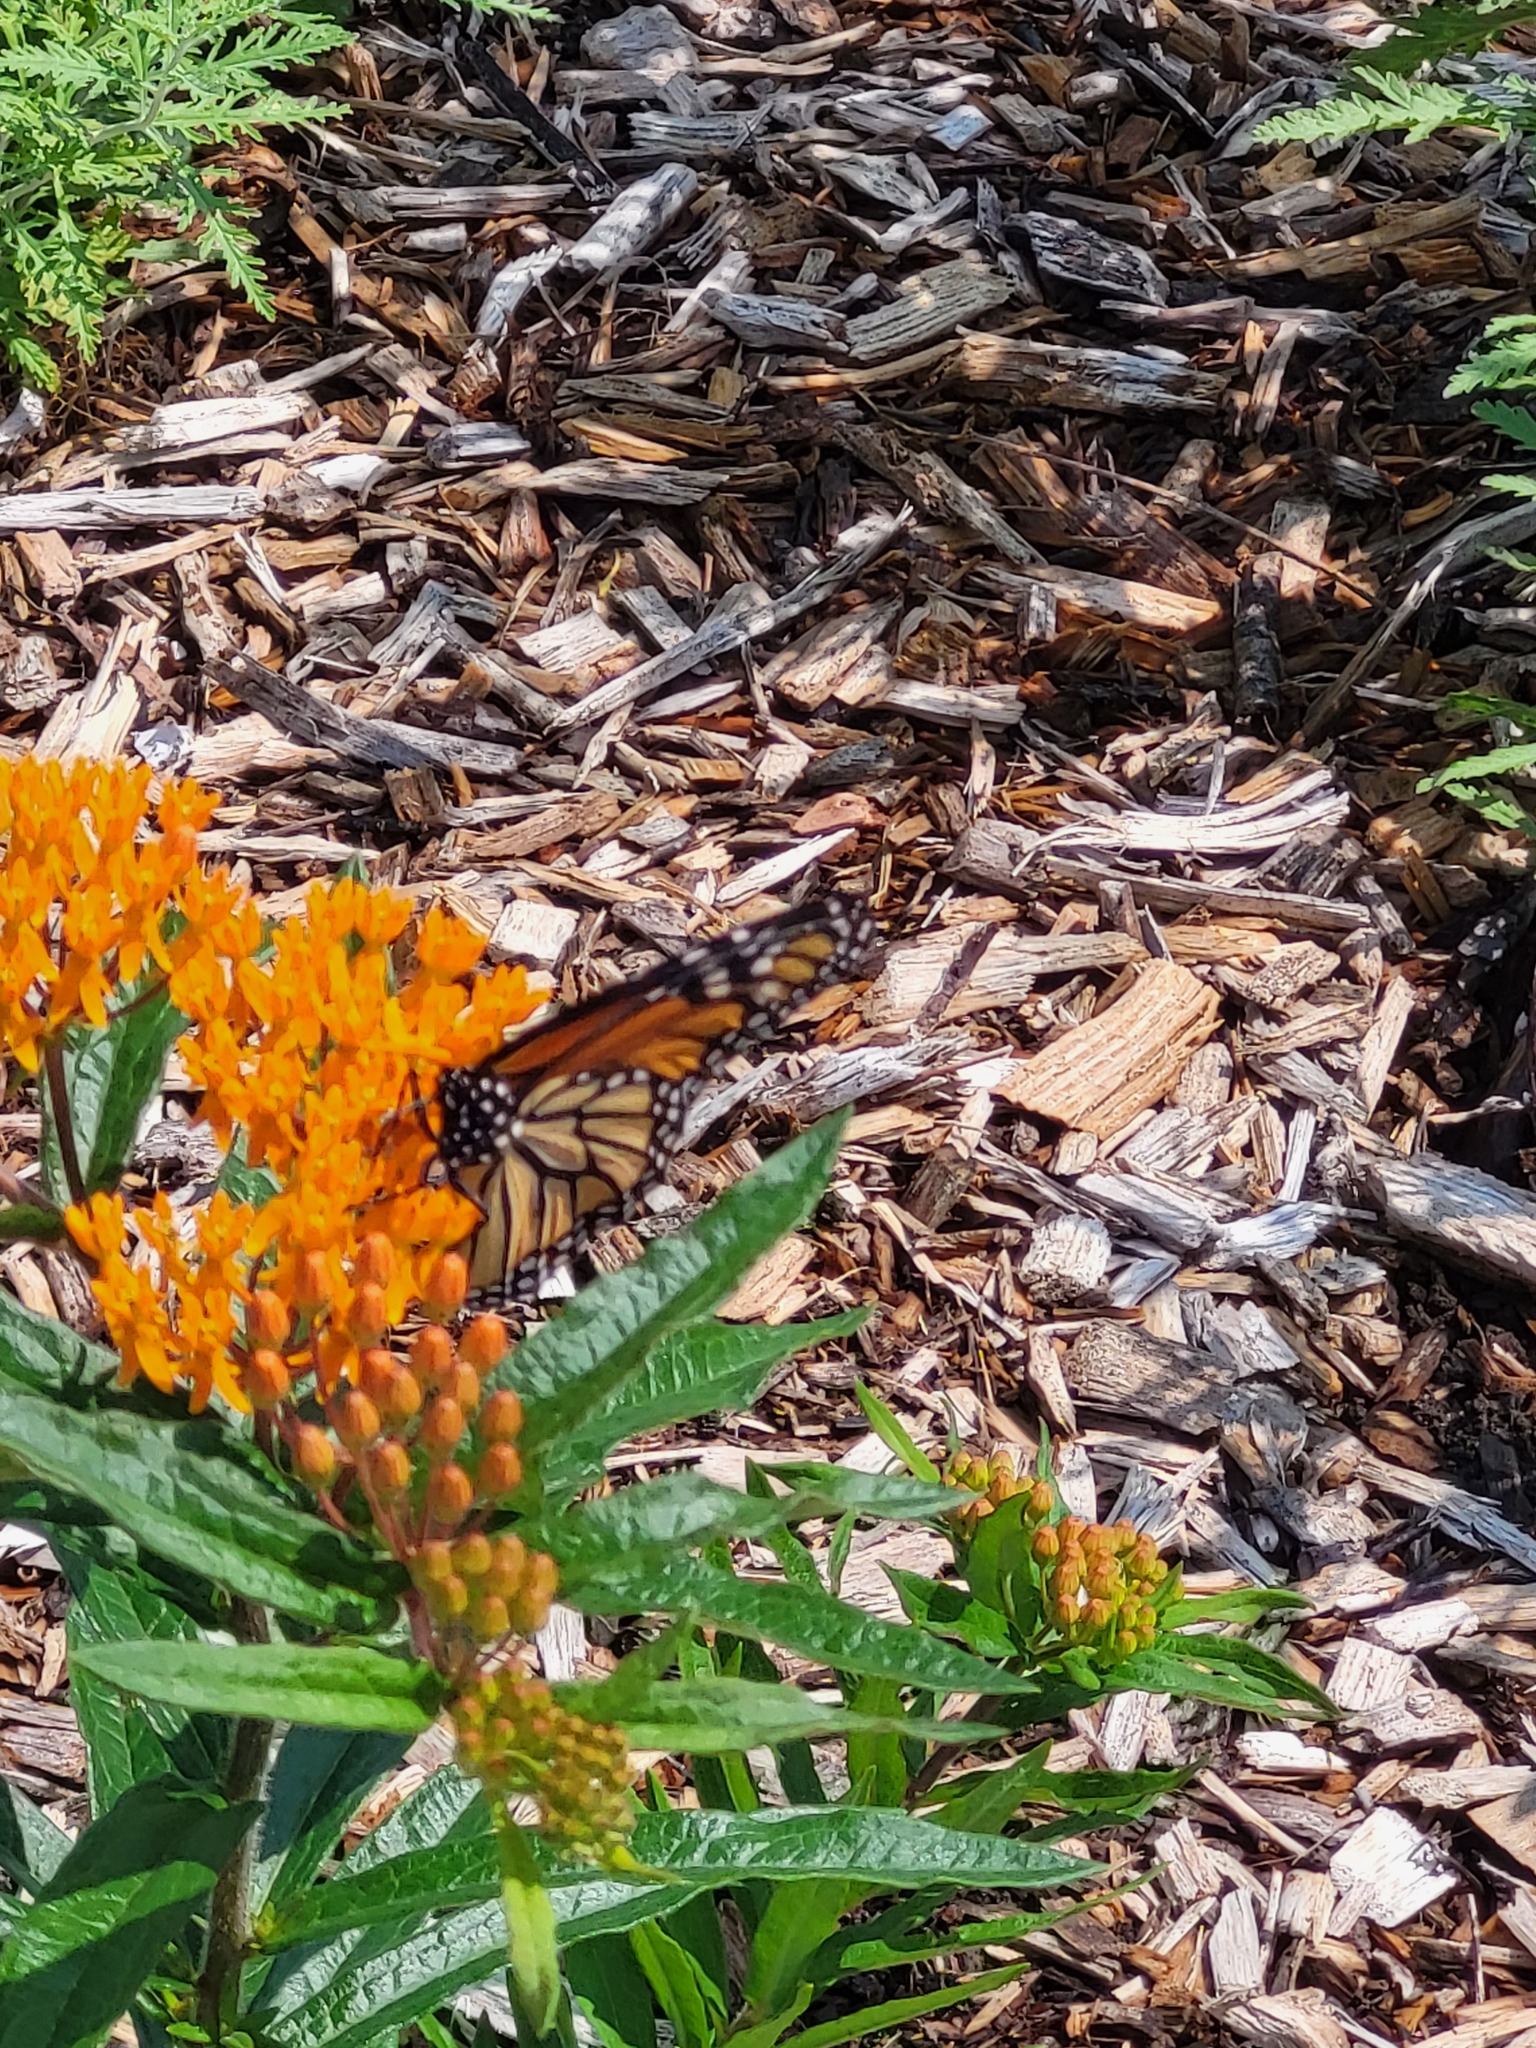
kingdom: Animalia
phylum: Arthropoda
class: Insecta
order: Lepidoptera
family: Nymphalidae
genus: Danaus
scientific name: Danaus plexippus
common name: Monarch
